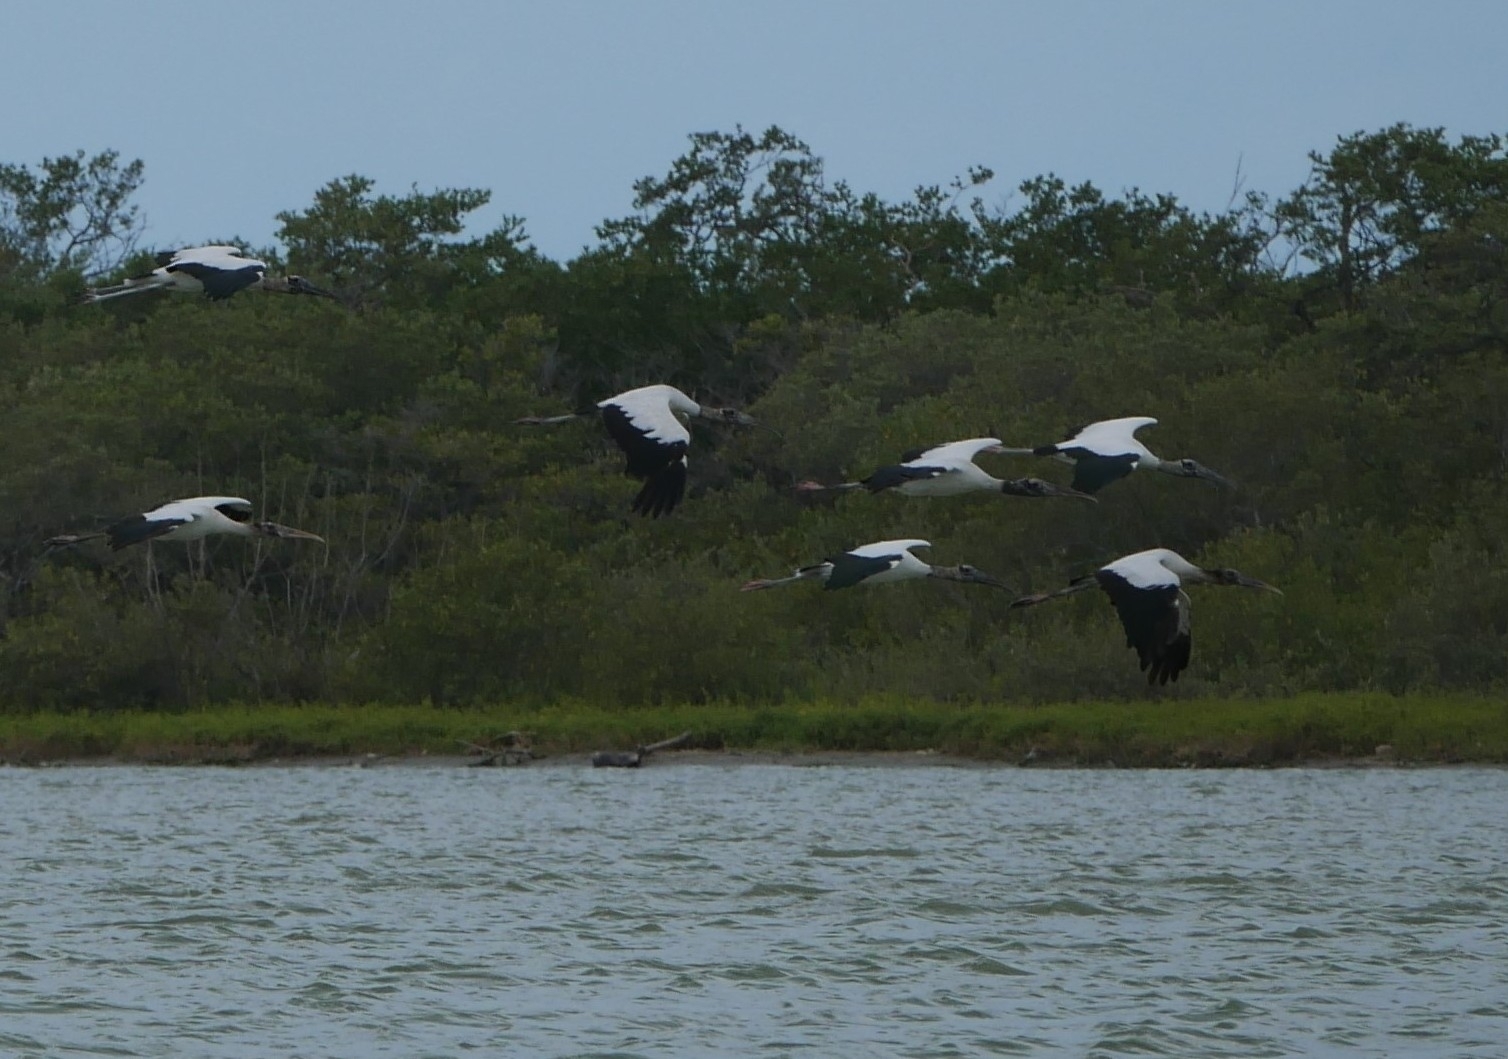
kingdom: Animalia
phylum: Chordata
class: Aves
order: Ciconiiformes
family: Ciconiidae
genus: Mycteria
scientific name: Mycteria americana
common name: Wood stork
